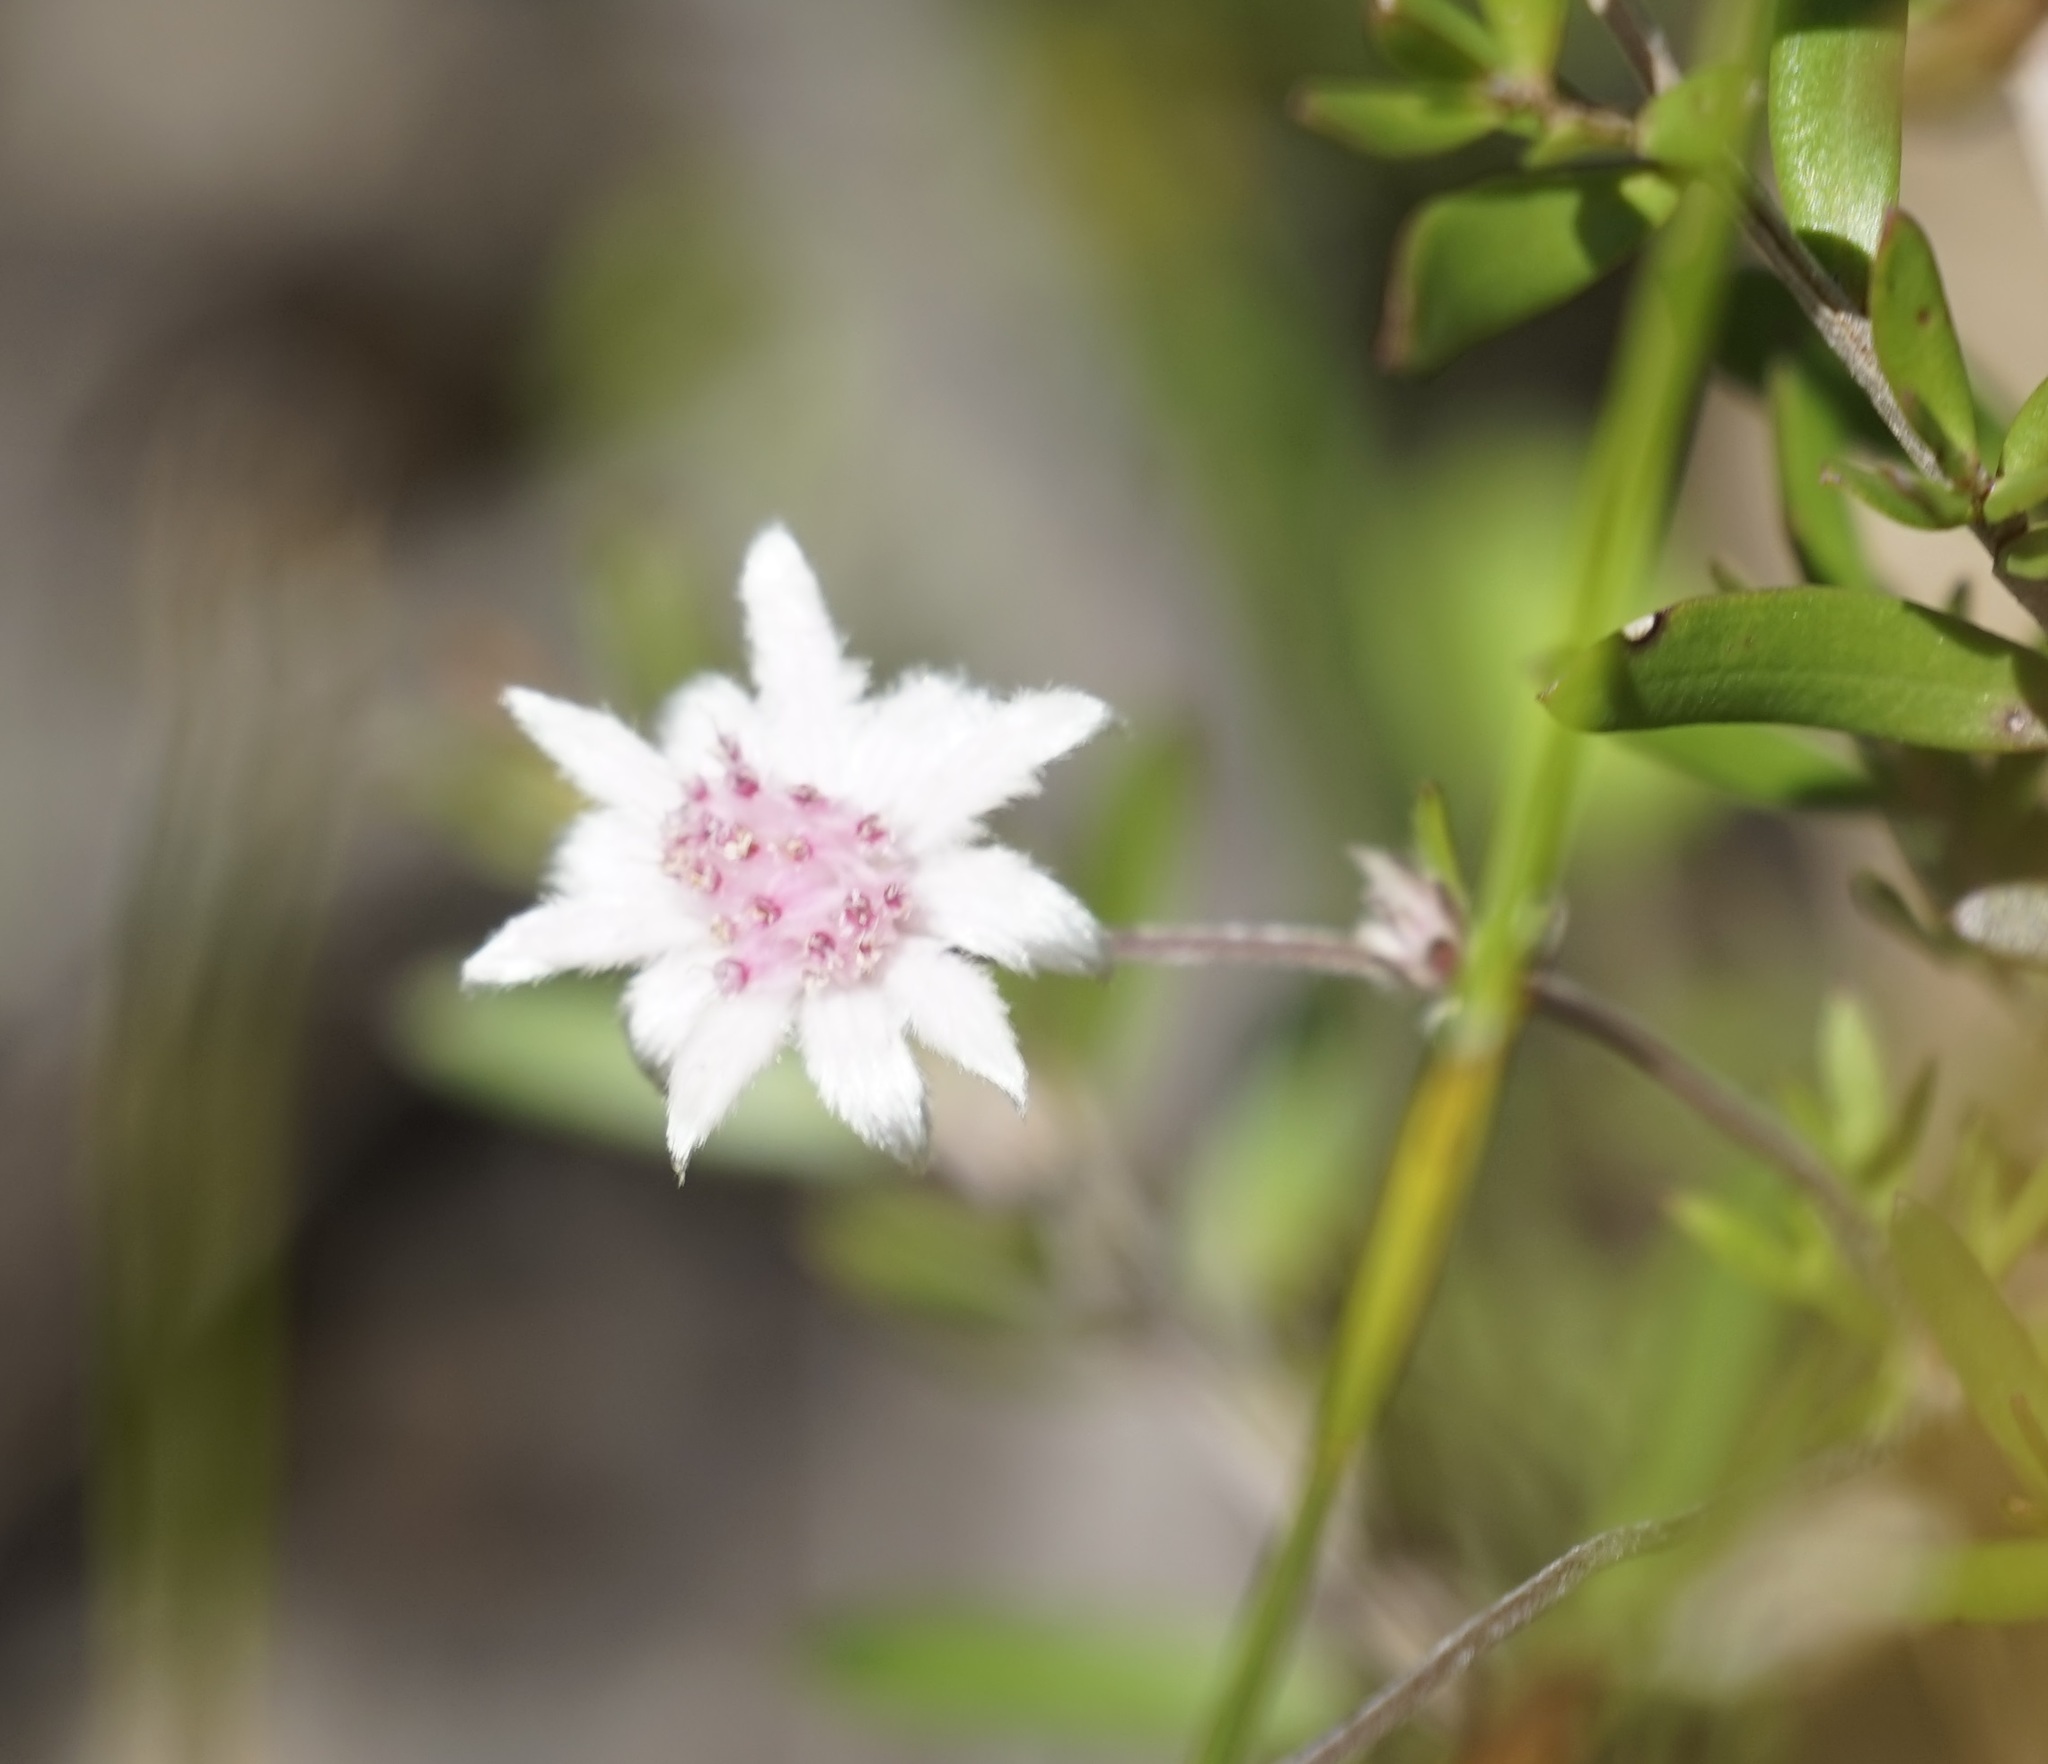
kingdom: Plantae
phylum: Tracheophyta
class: Magnoliopsida
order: Apiales
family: Apiaceae
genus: Actinotus
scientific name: Actinotus forsythii
